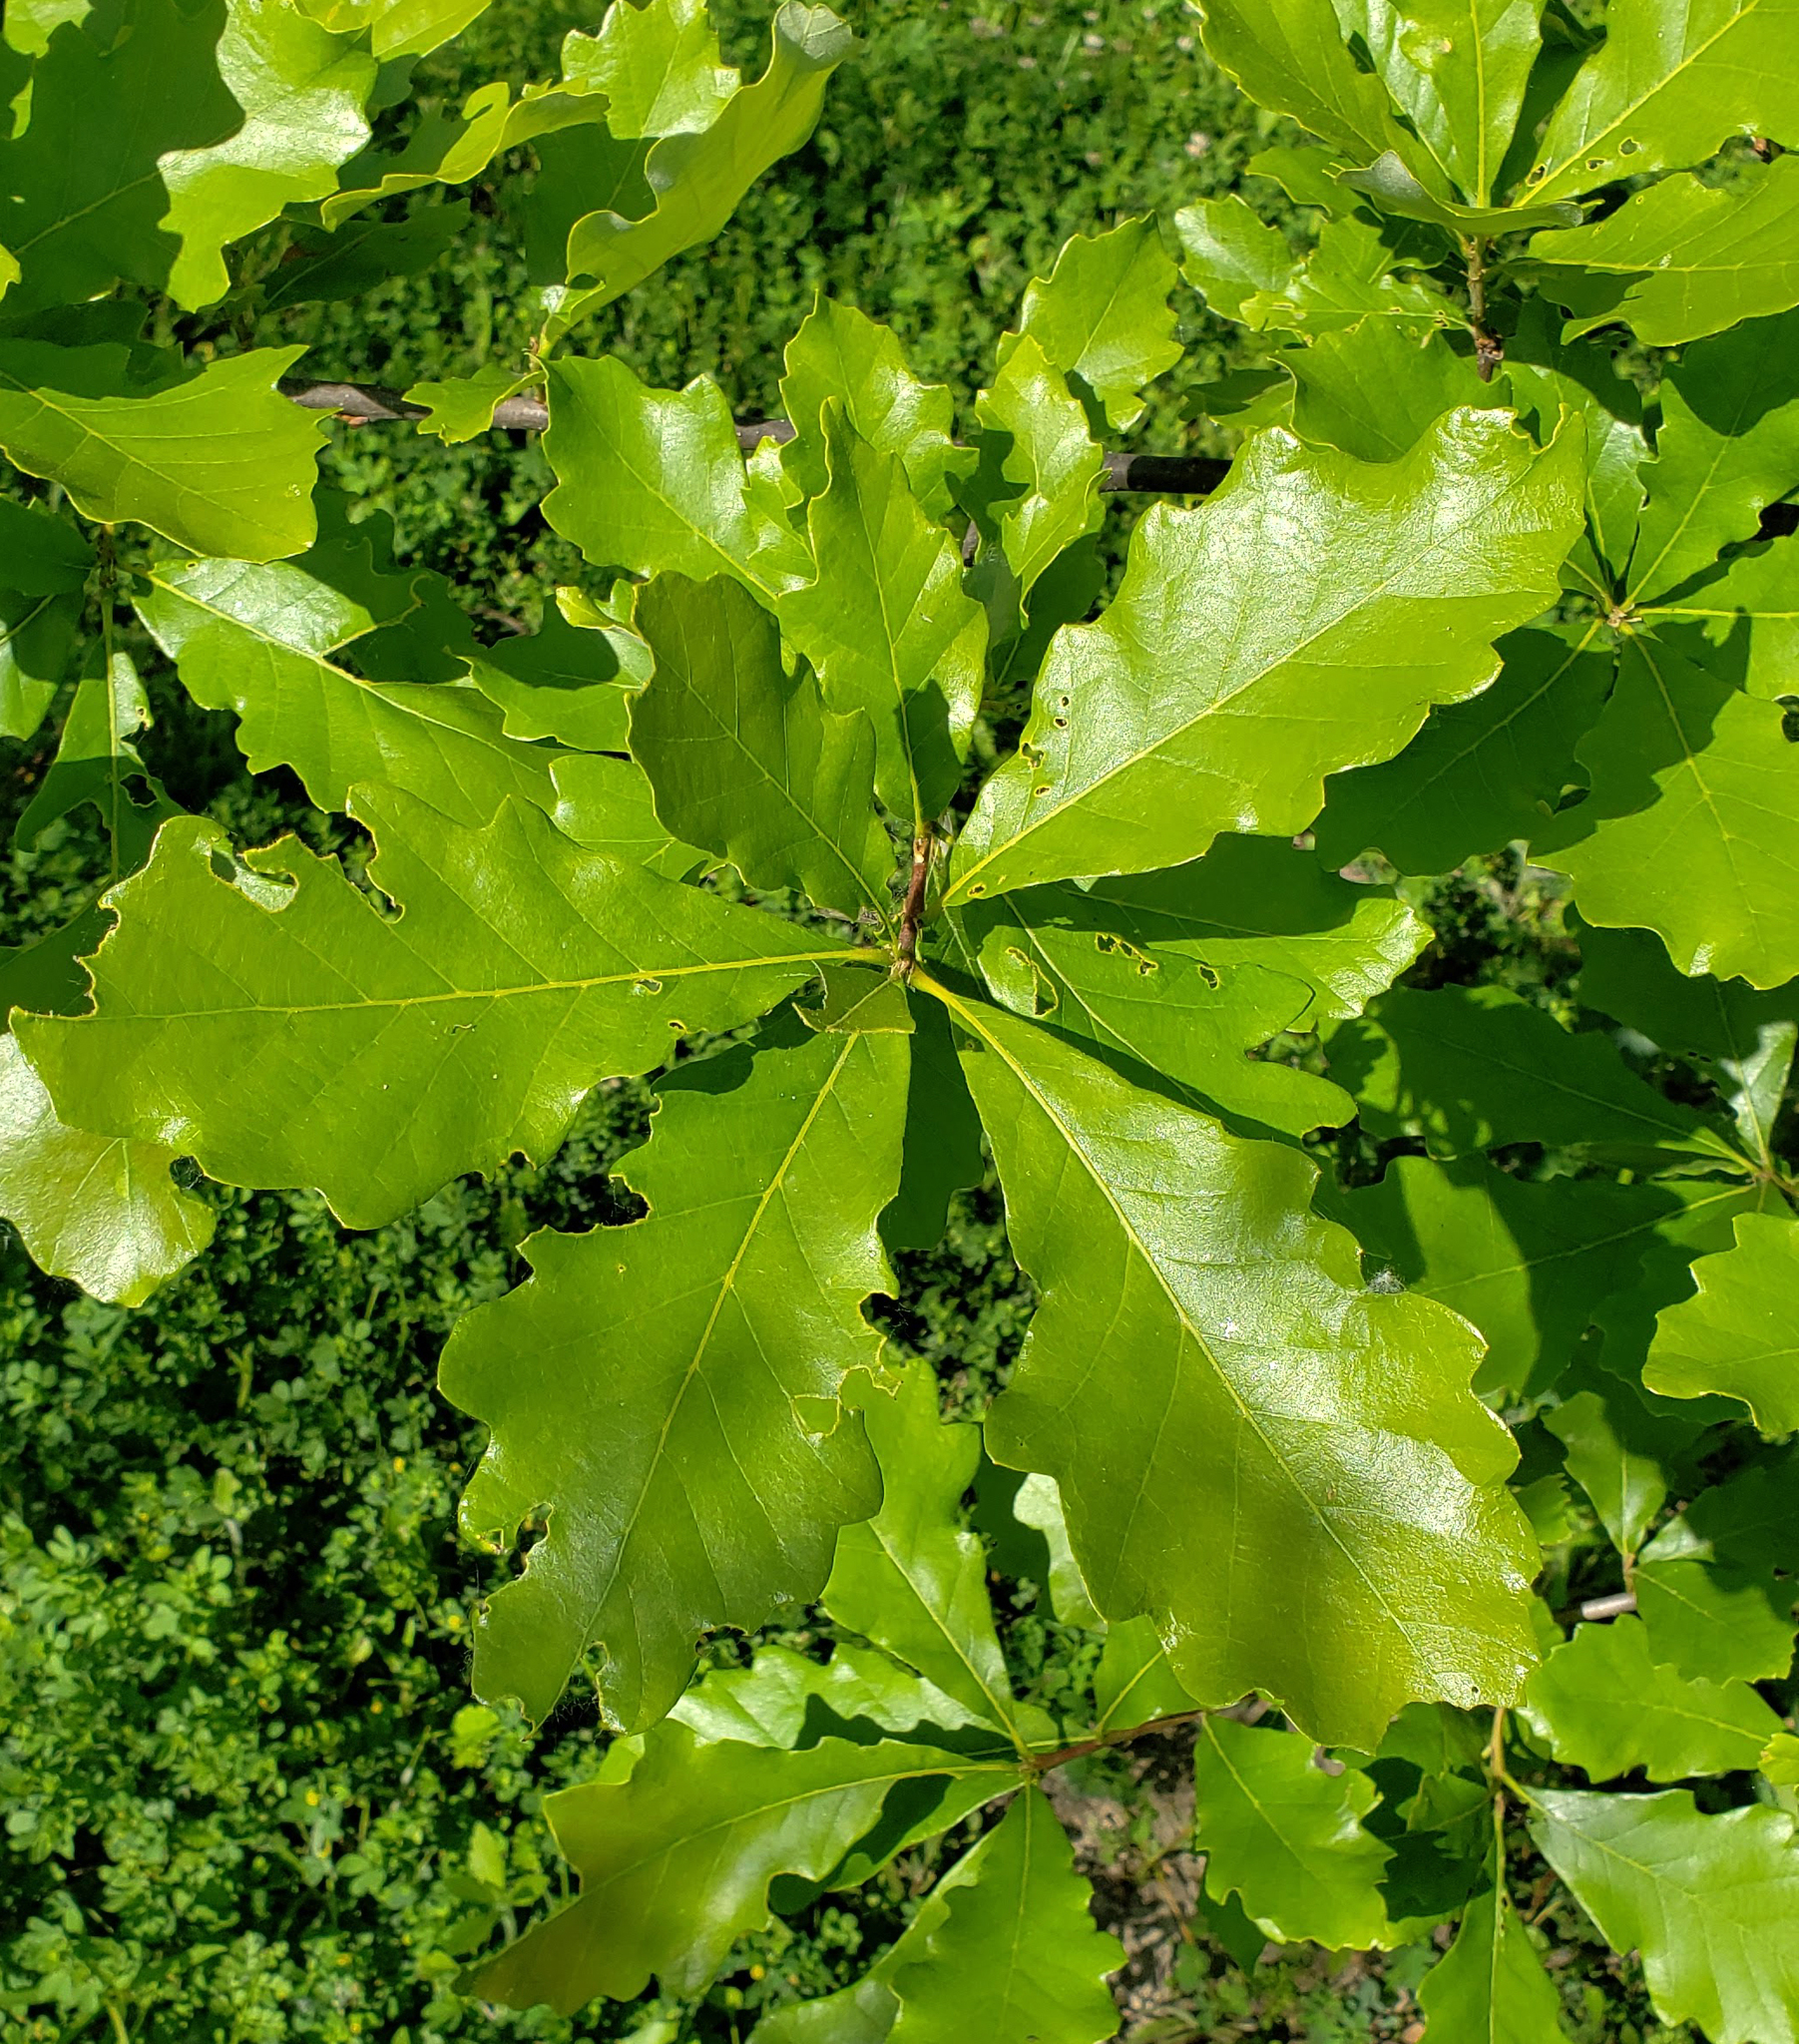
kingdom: Plantae
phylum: Tracheophyta
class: Magnoliopsida
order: Fagales
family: Fagaceae
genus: Quercus
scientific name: Quercus bicolor
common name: Swamp white oak
